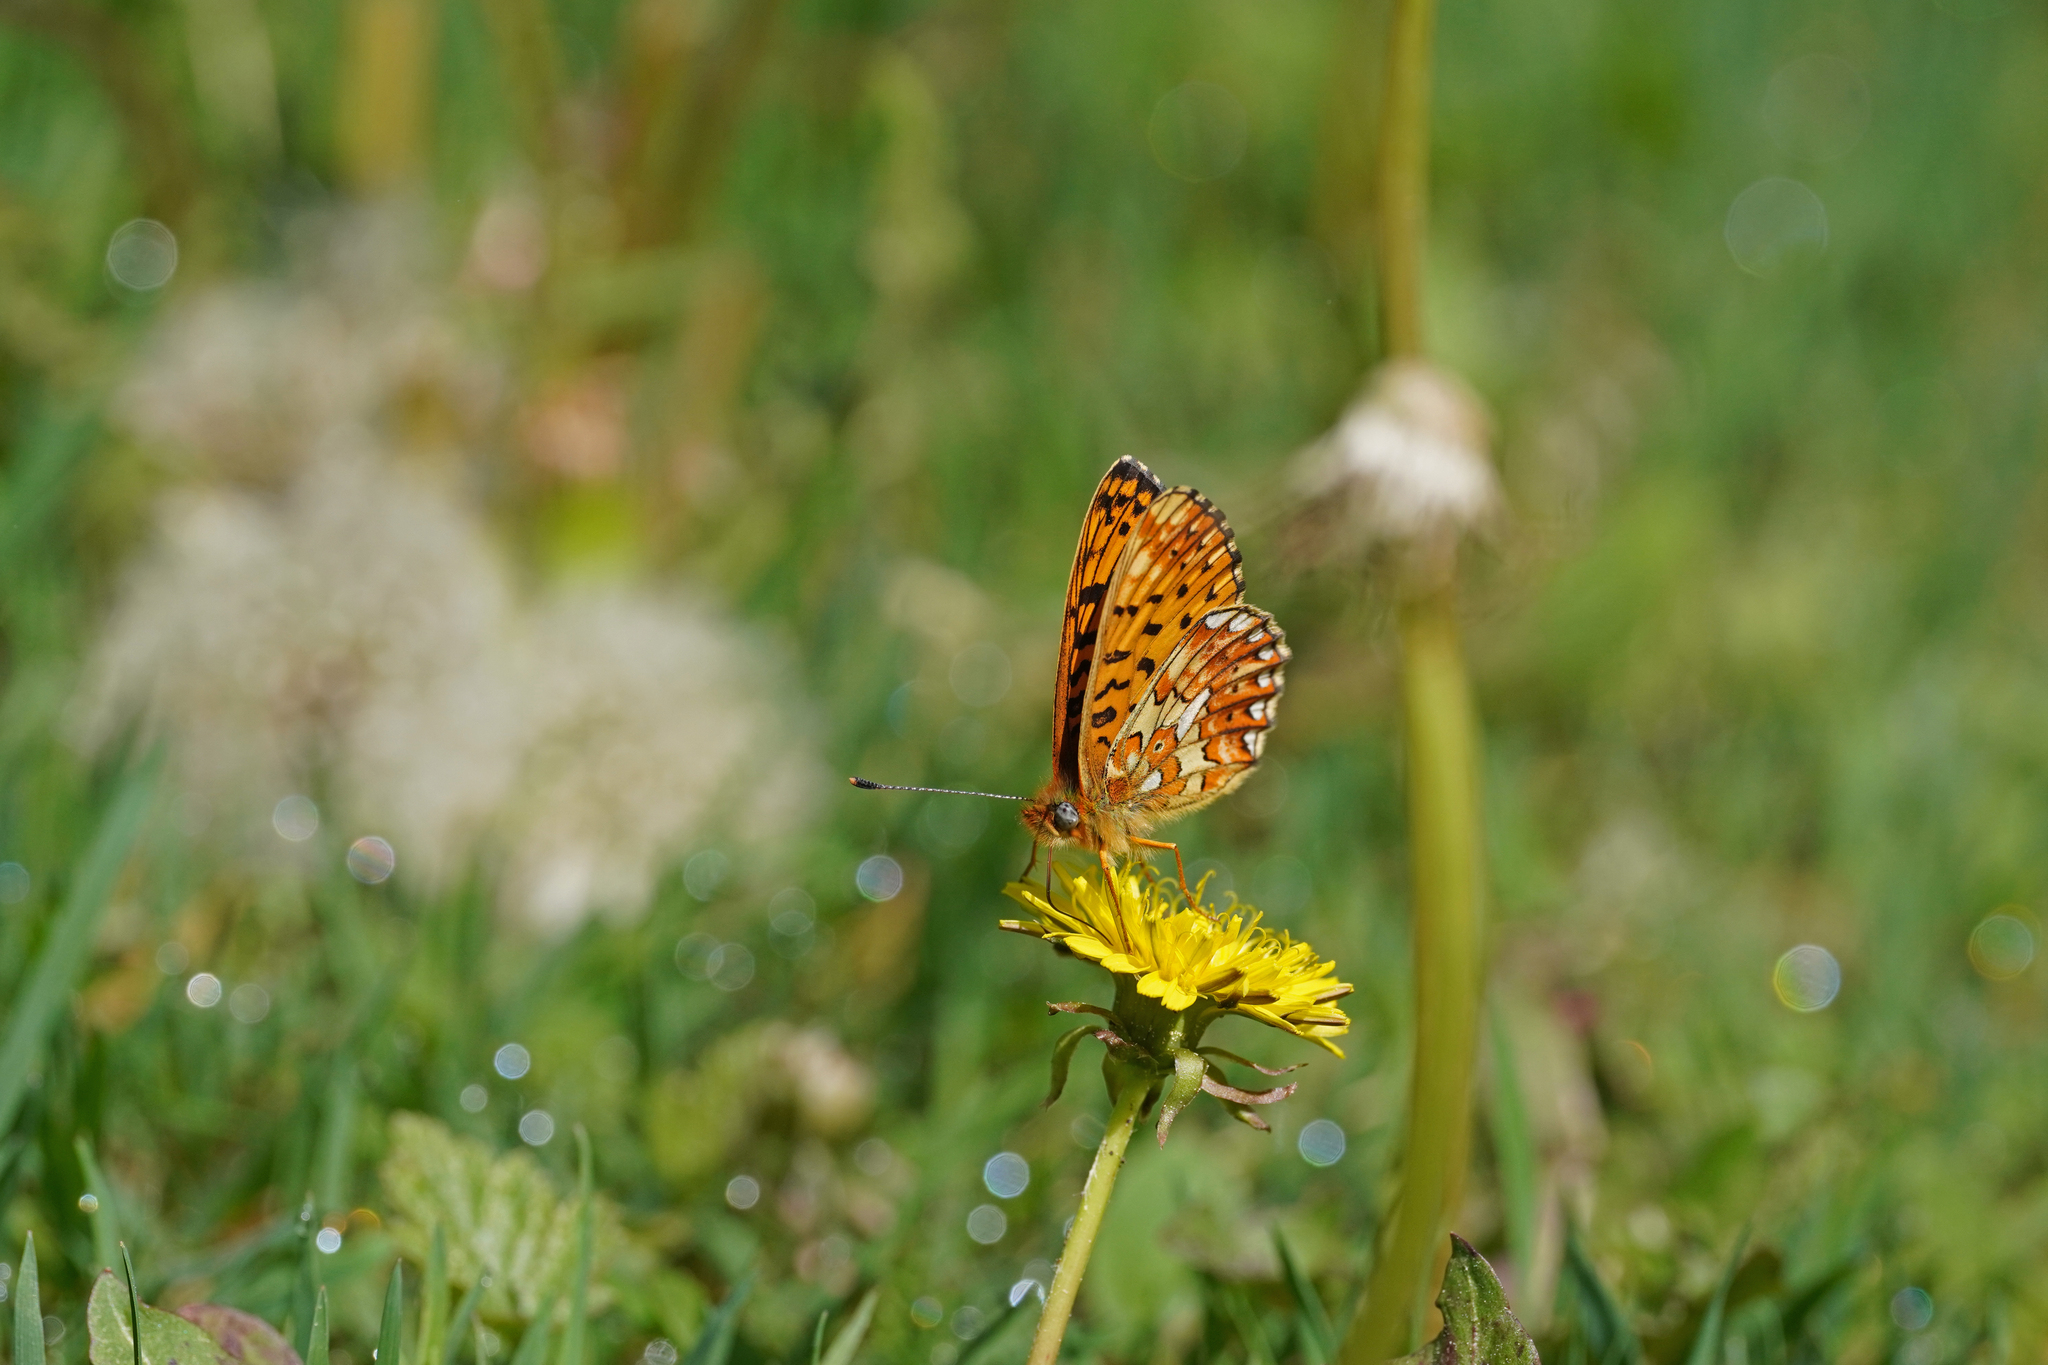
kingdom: Animalia
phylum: Arthropoda
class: Insecta
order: Lepidoptera
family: Nymphalidae
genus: Clossiana
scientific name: Clossiana euphrosyne
